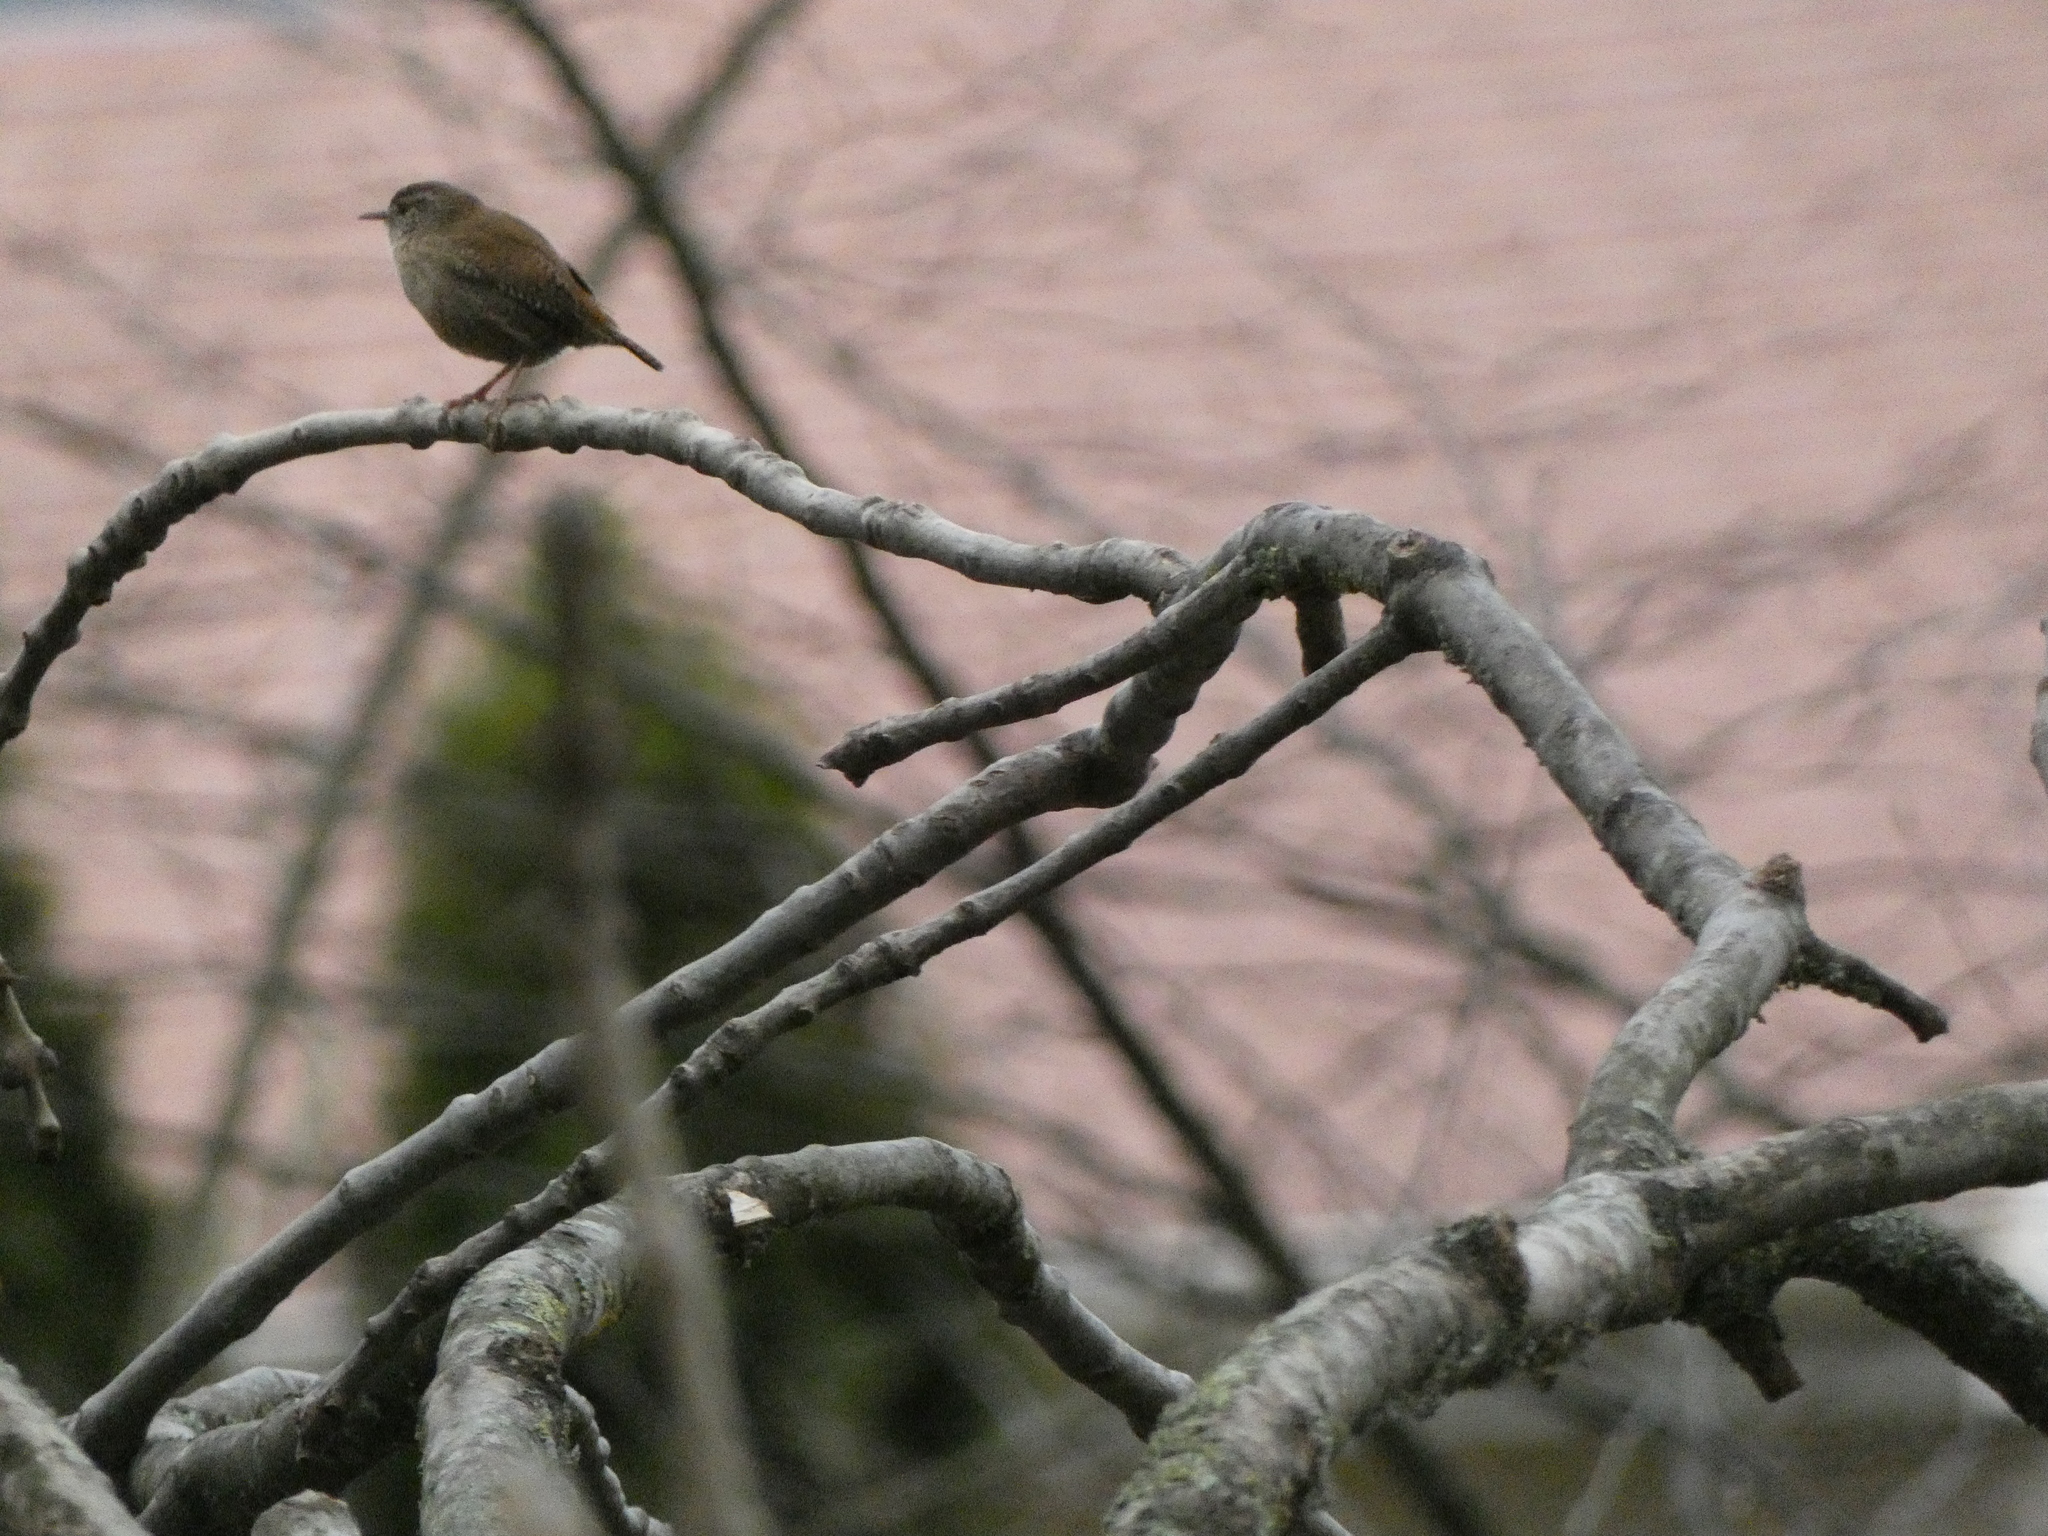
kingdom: Animalia
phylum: Chordata
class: Aves
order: Passeriformes
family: Troglodytidae
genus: Troglodytes
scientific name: Troglodytes troglodytes
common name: Eurasian wren
